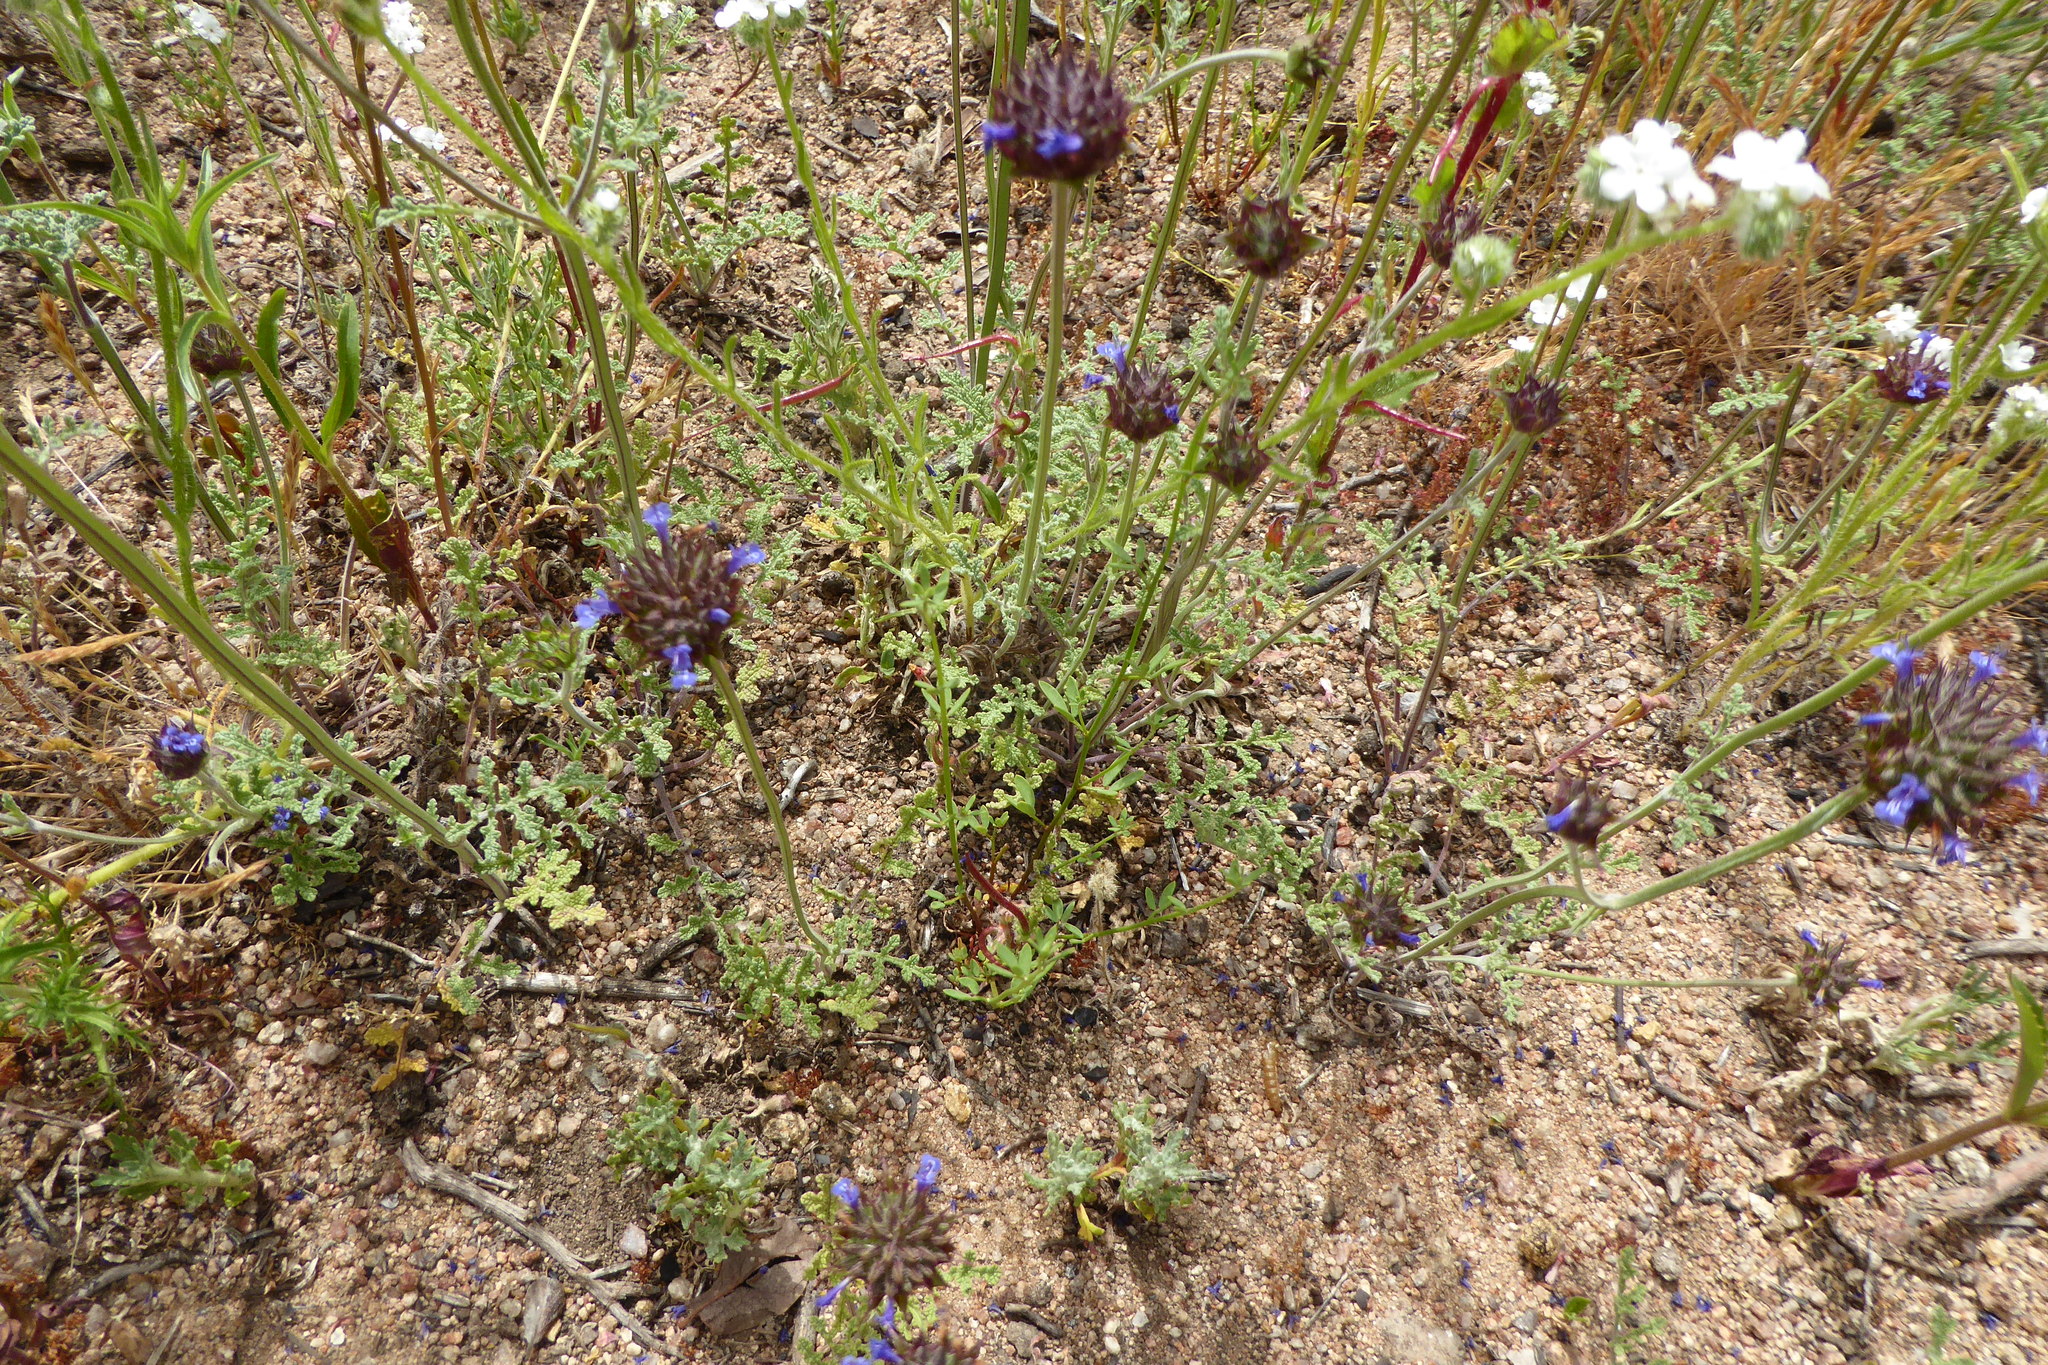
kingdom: Plantae
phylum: Tracheophyta
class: Magnoliopsida
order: Lamiales
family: Lamiaceae
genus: Salvia
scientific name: Salvia columbariae
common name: Chia
